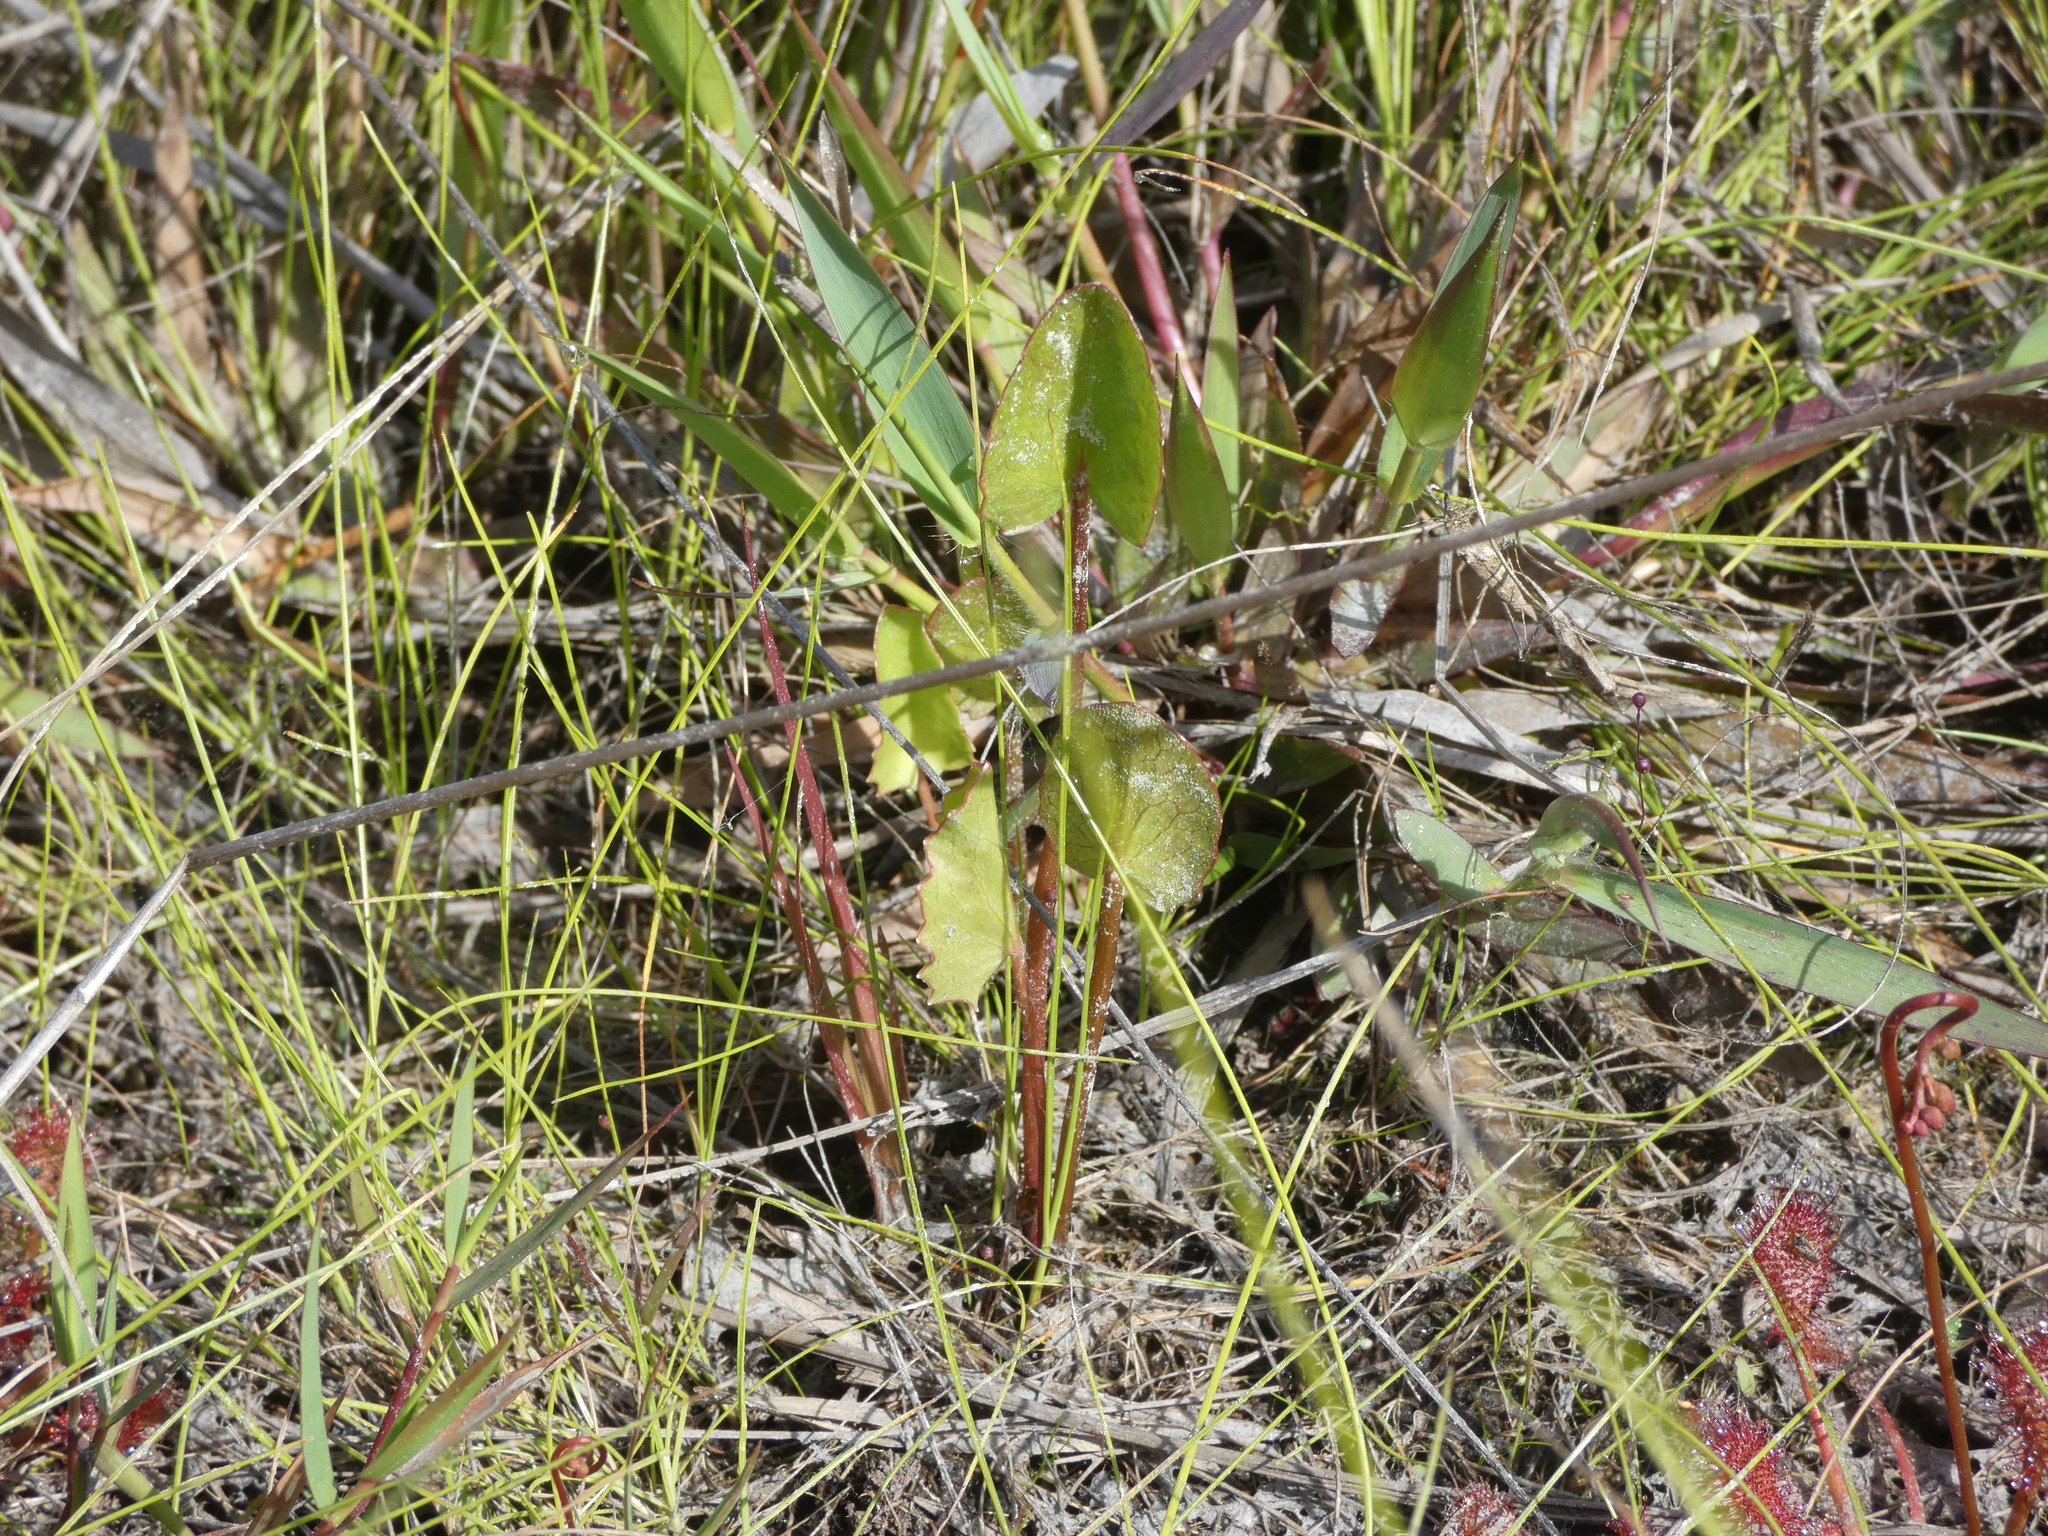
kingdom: Plantae
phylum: Tracheophyta
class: Magnoliopsida
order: Apiales
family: Apiaceae
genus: Centella
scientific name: Centella erecta
